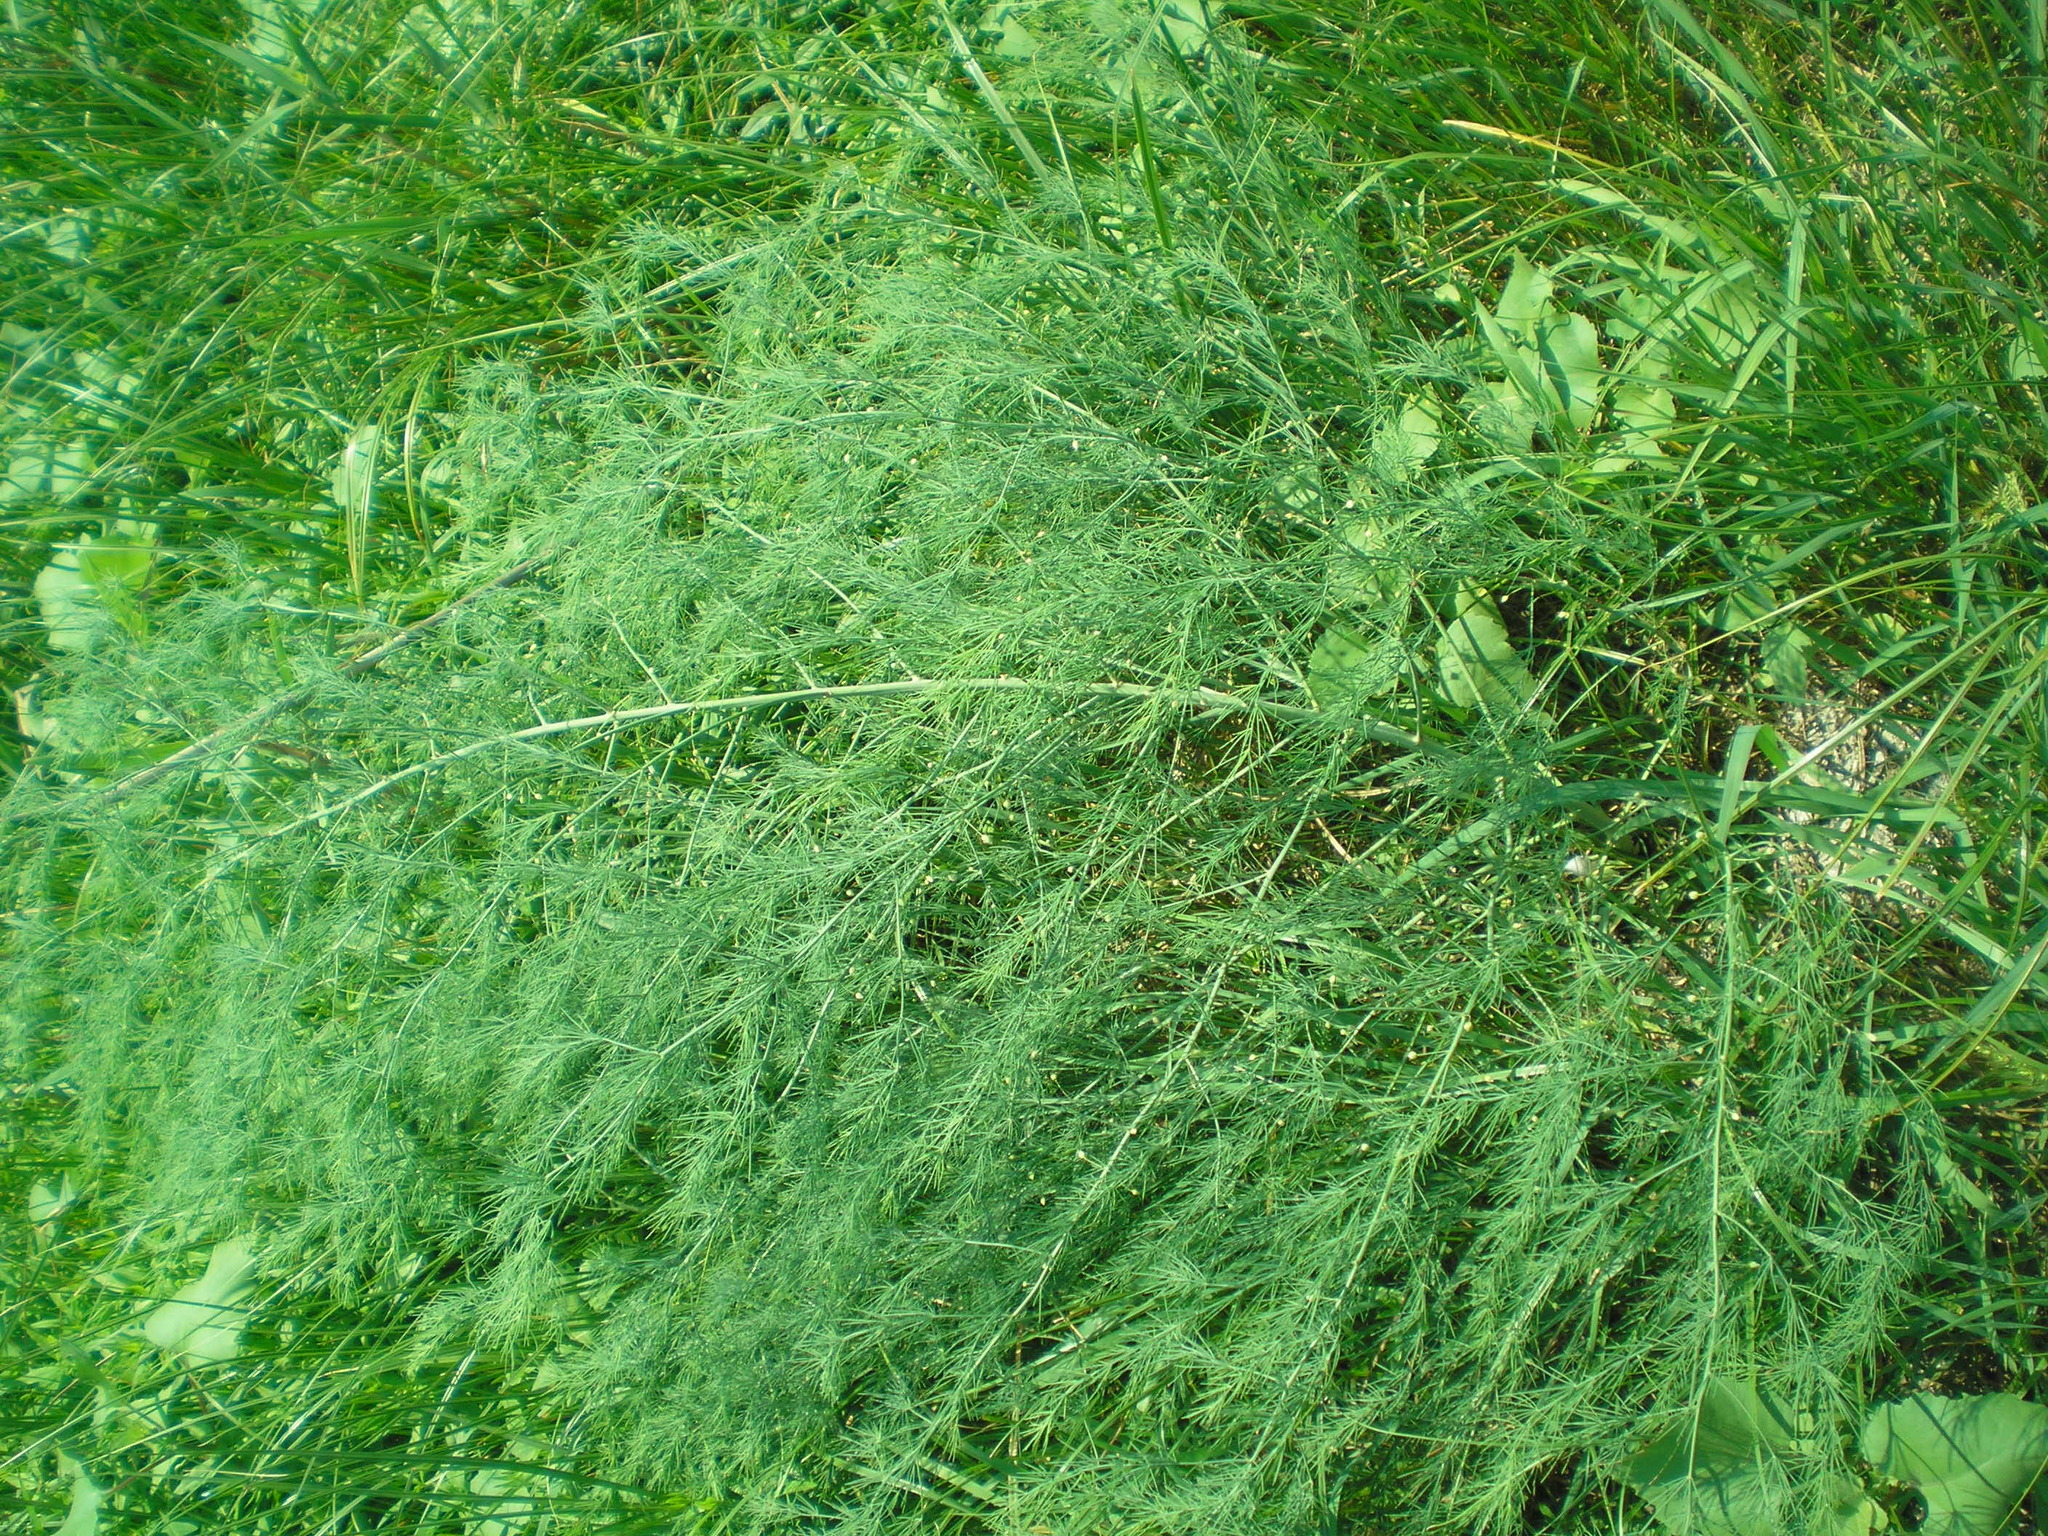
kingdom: Plantae
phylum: Tracheophyta
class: Liliopsida
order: Asparagales
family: Asparagaceae
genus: Asparagus
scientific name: Asparagus officinalis
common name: Garden asparagus
